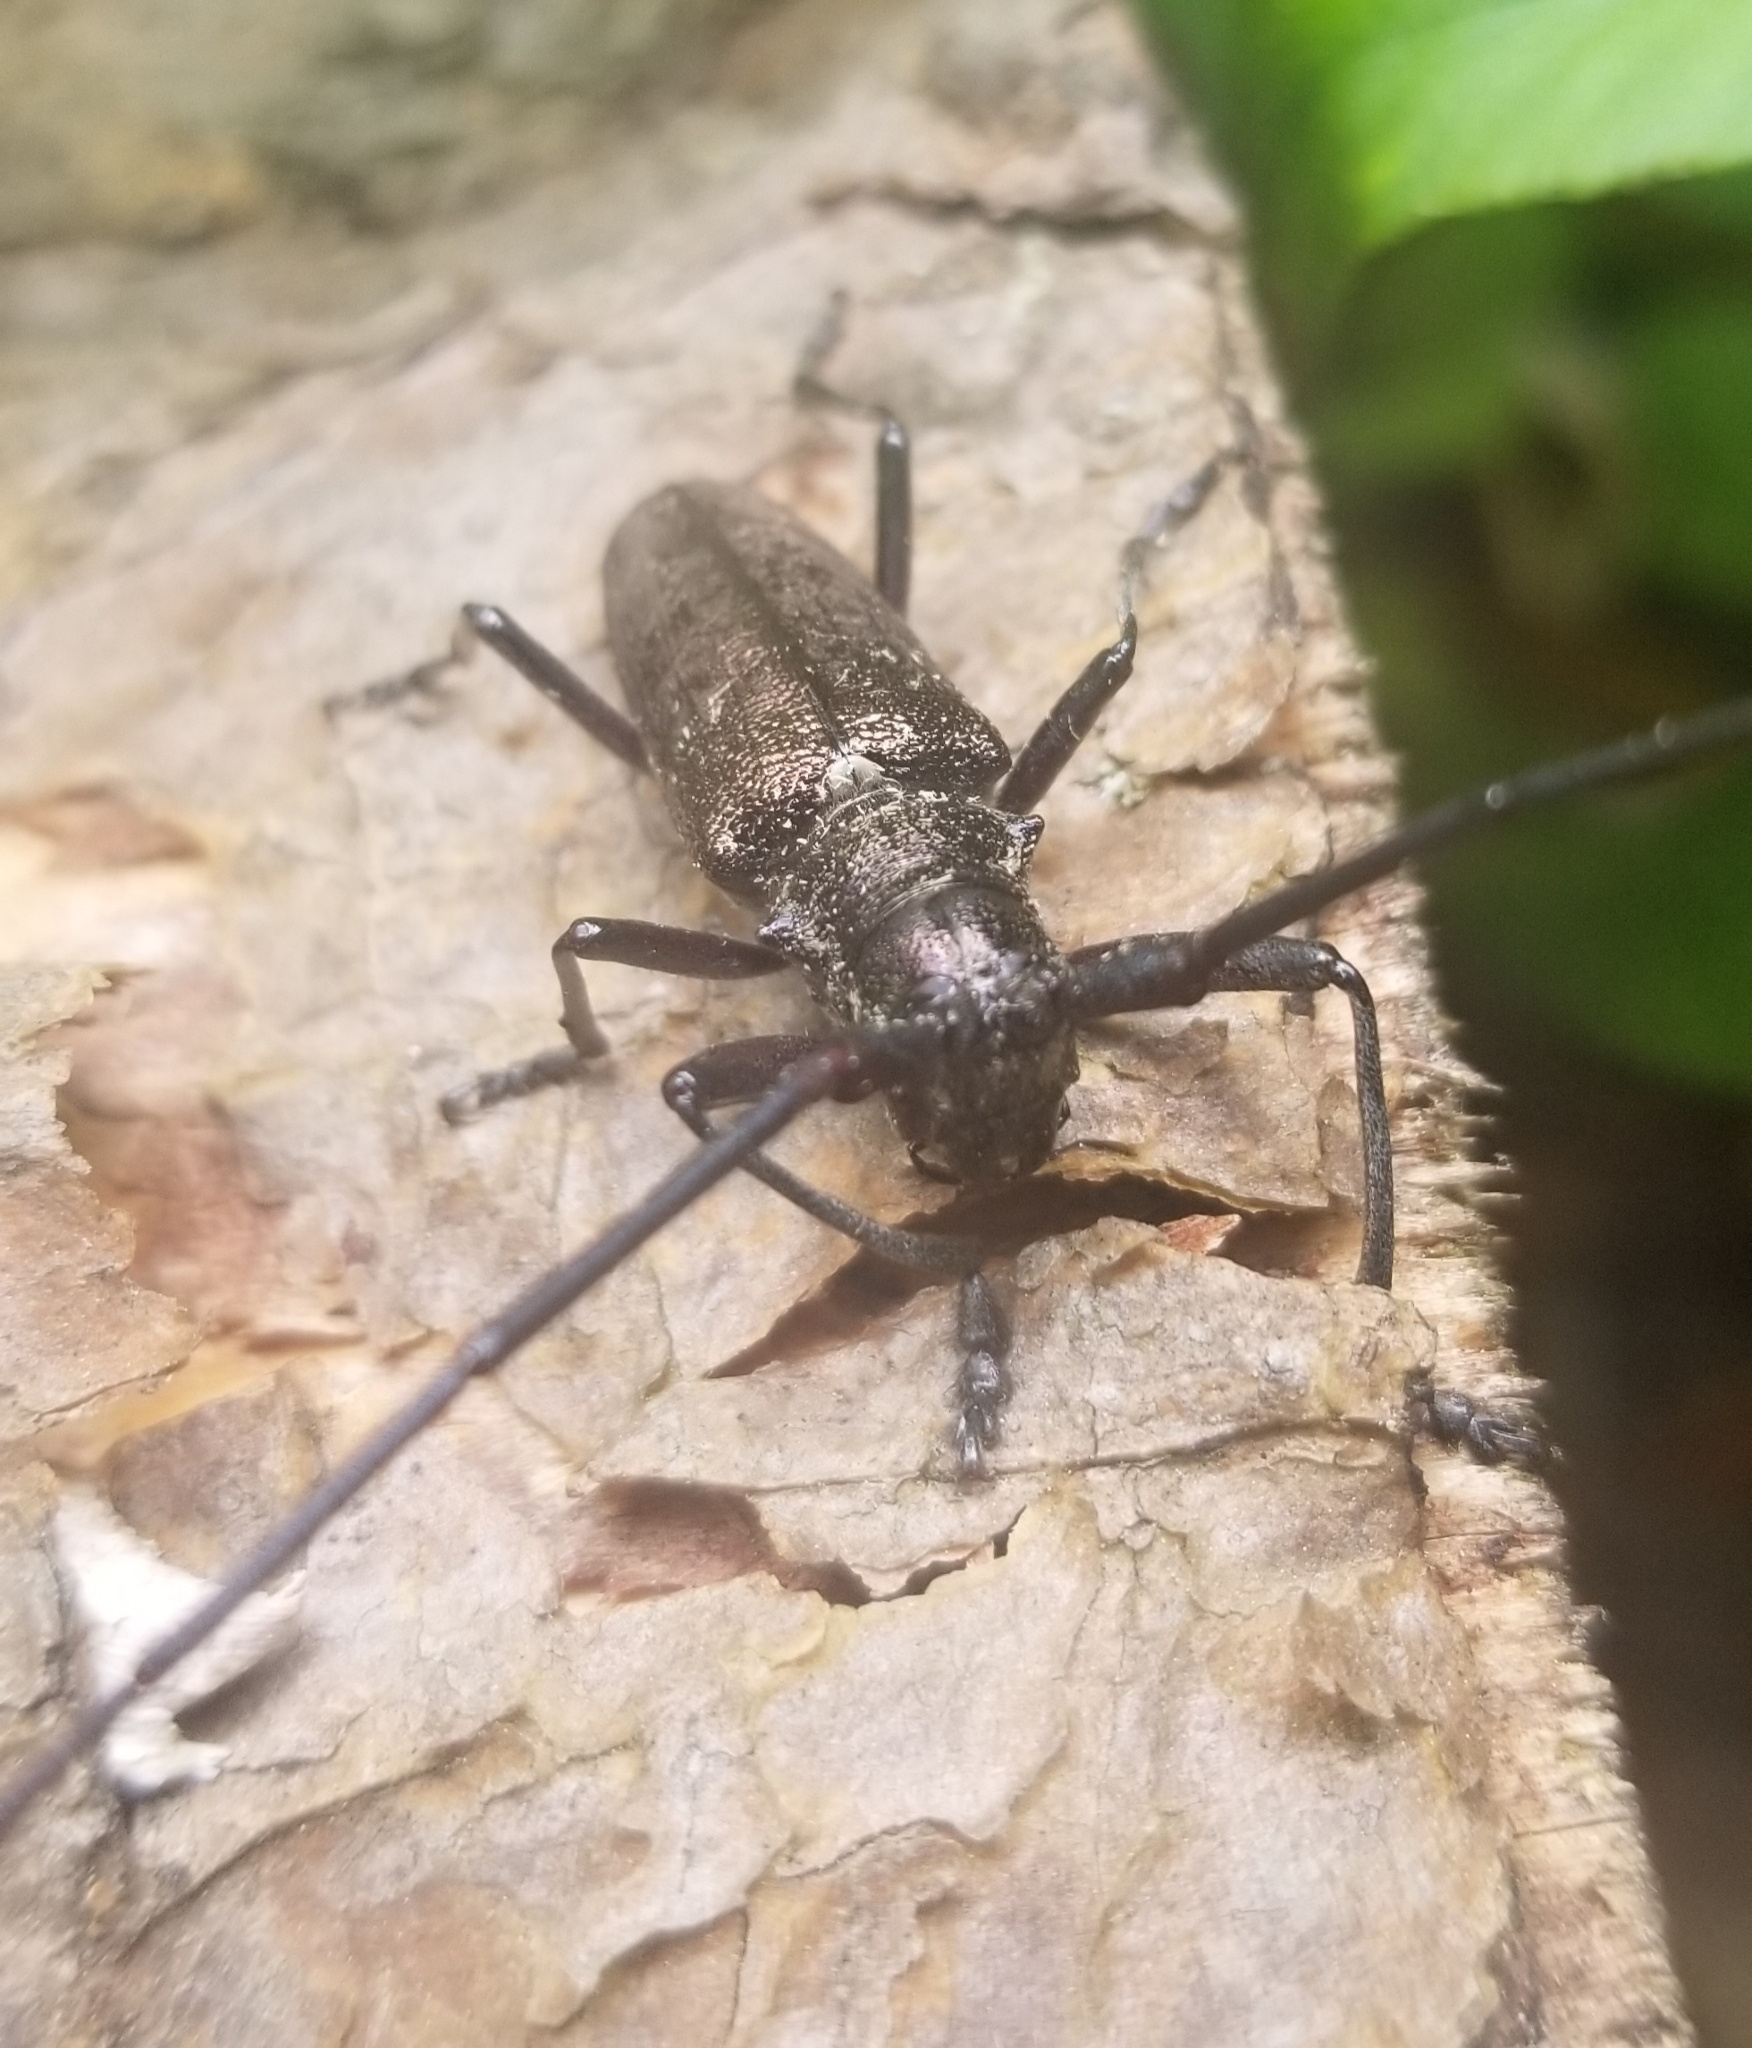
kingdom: Animalia
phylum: Arthropoda
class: Insecta
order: Coleoptera
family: Cerambycidae
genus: Monochamus
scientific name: Monochamus scutellatus
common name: White-spotted sawyer beetle
